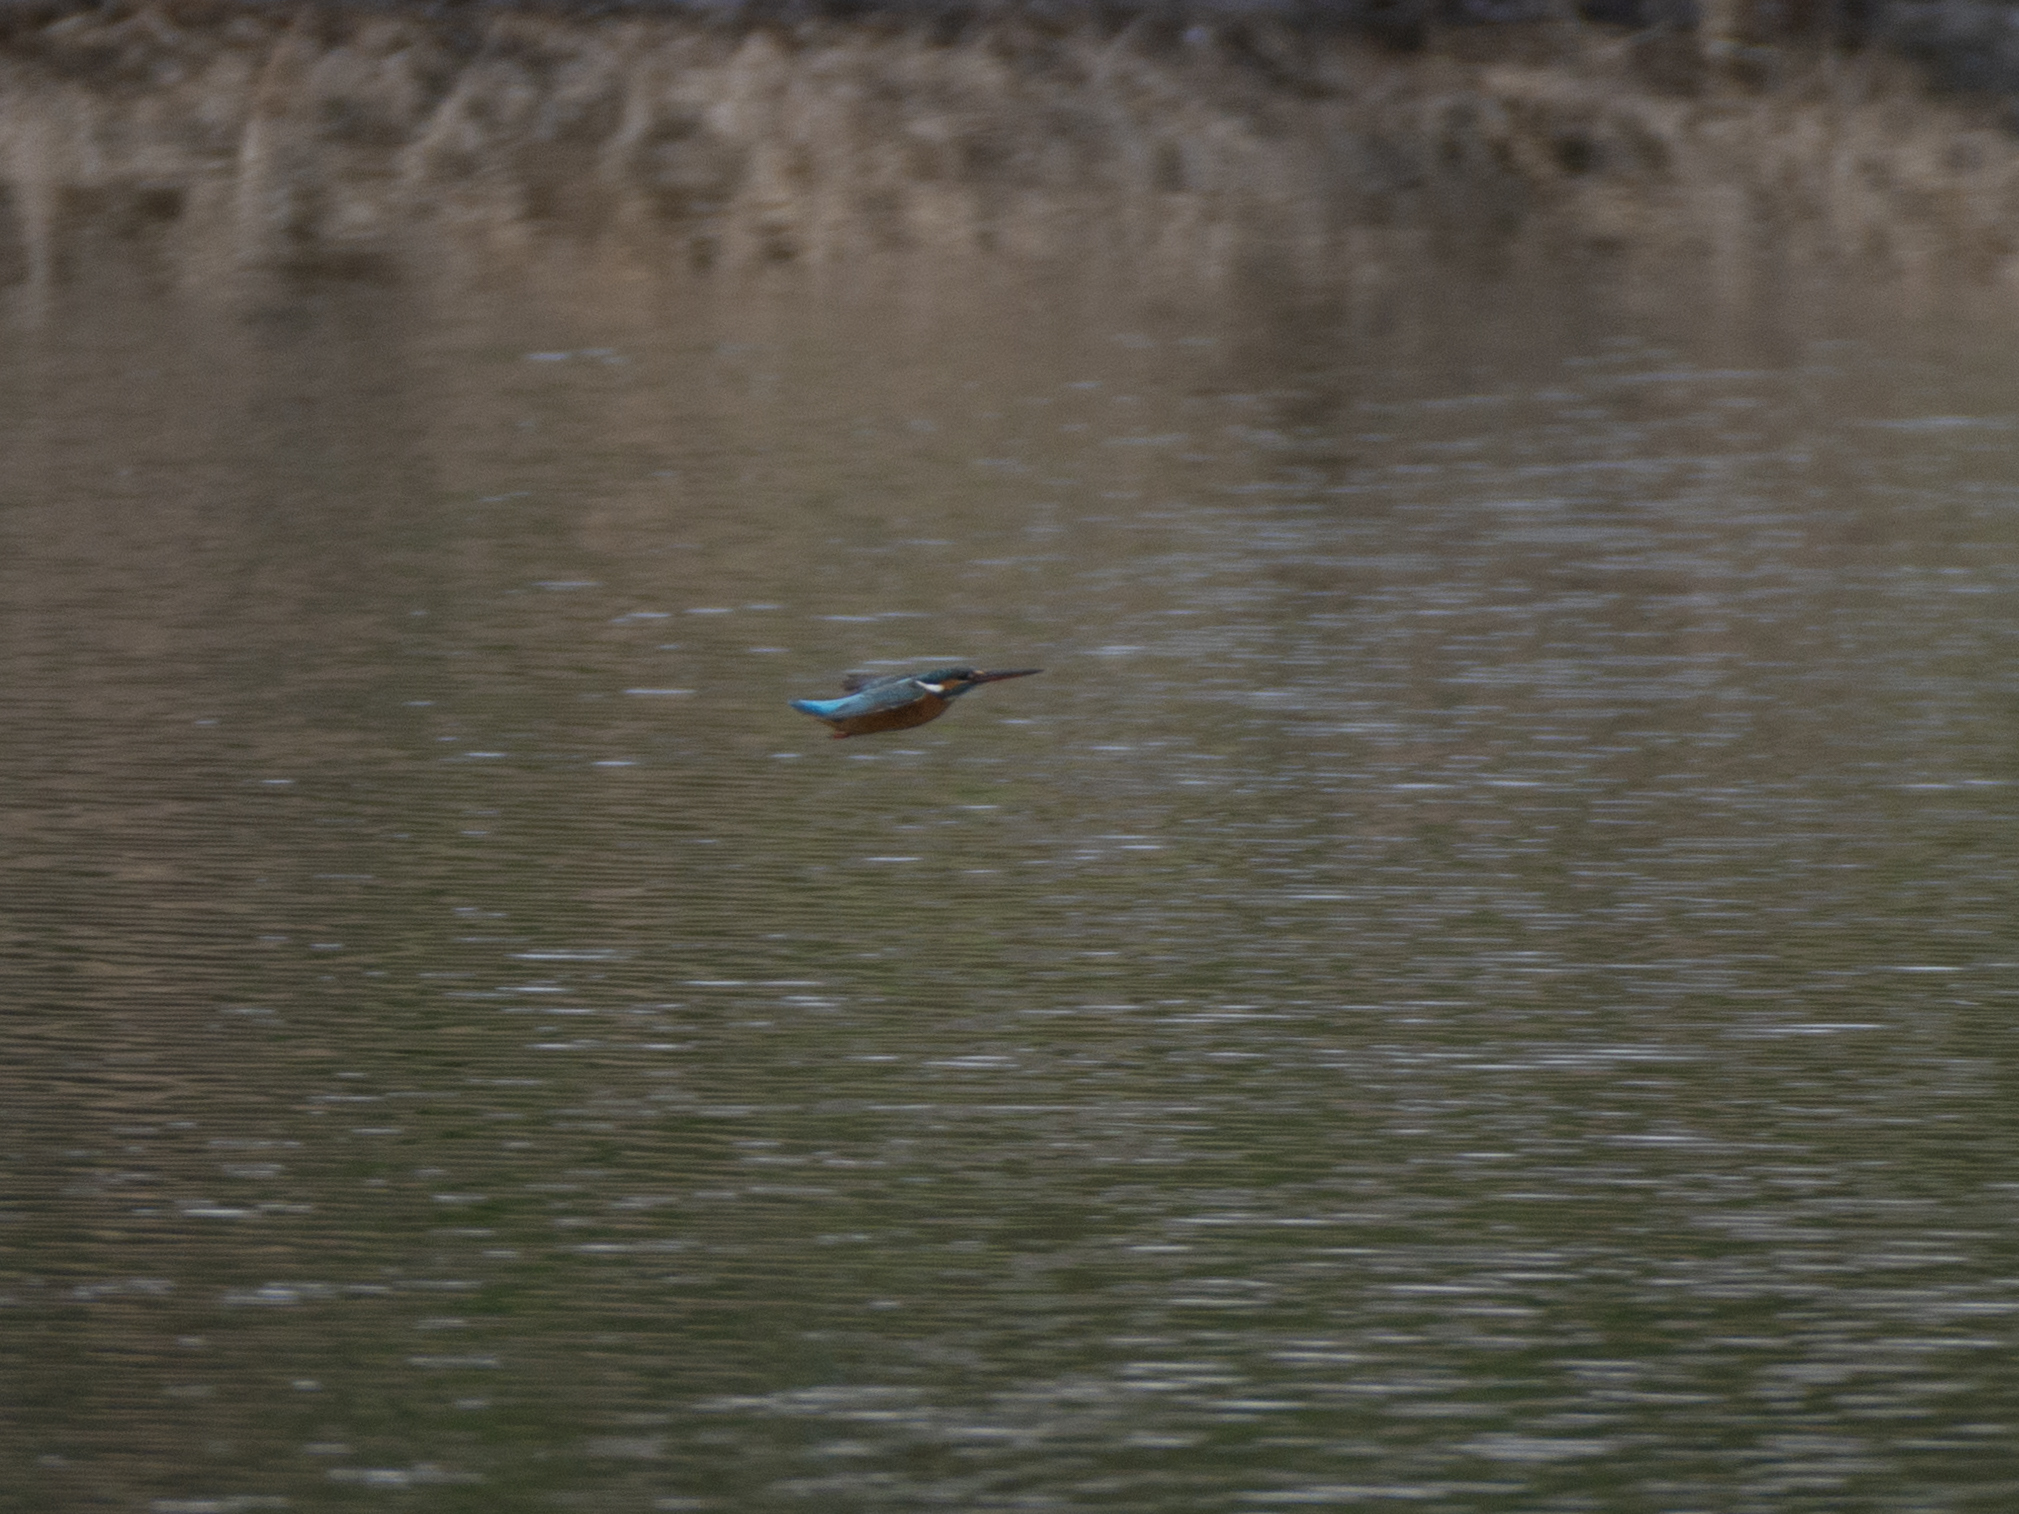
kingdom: Animalia
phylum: Chordata
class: Aves
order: Coraciiformes
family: Alcedinidae
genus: Alcedo
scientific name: Alcedo atthis
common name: Common kingfisher
